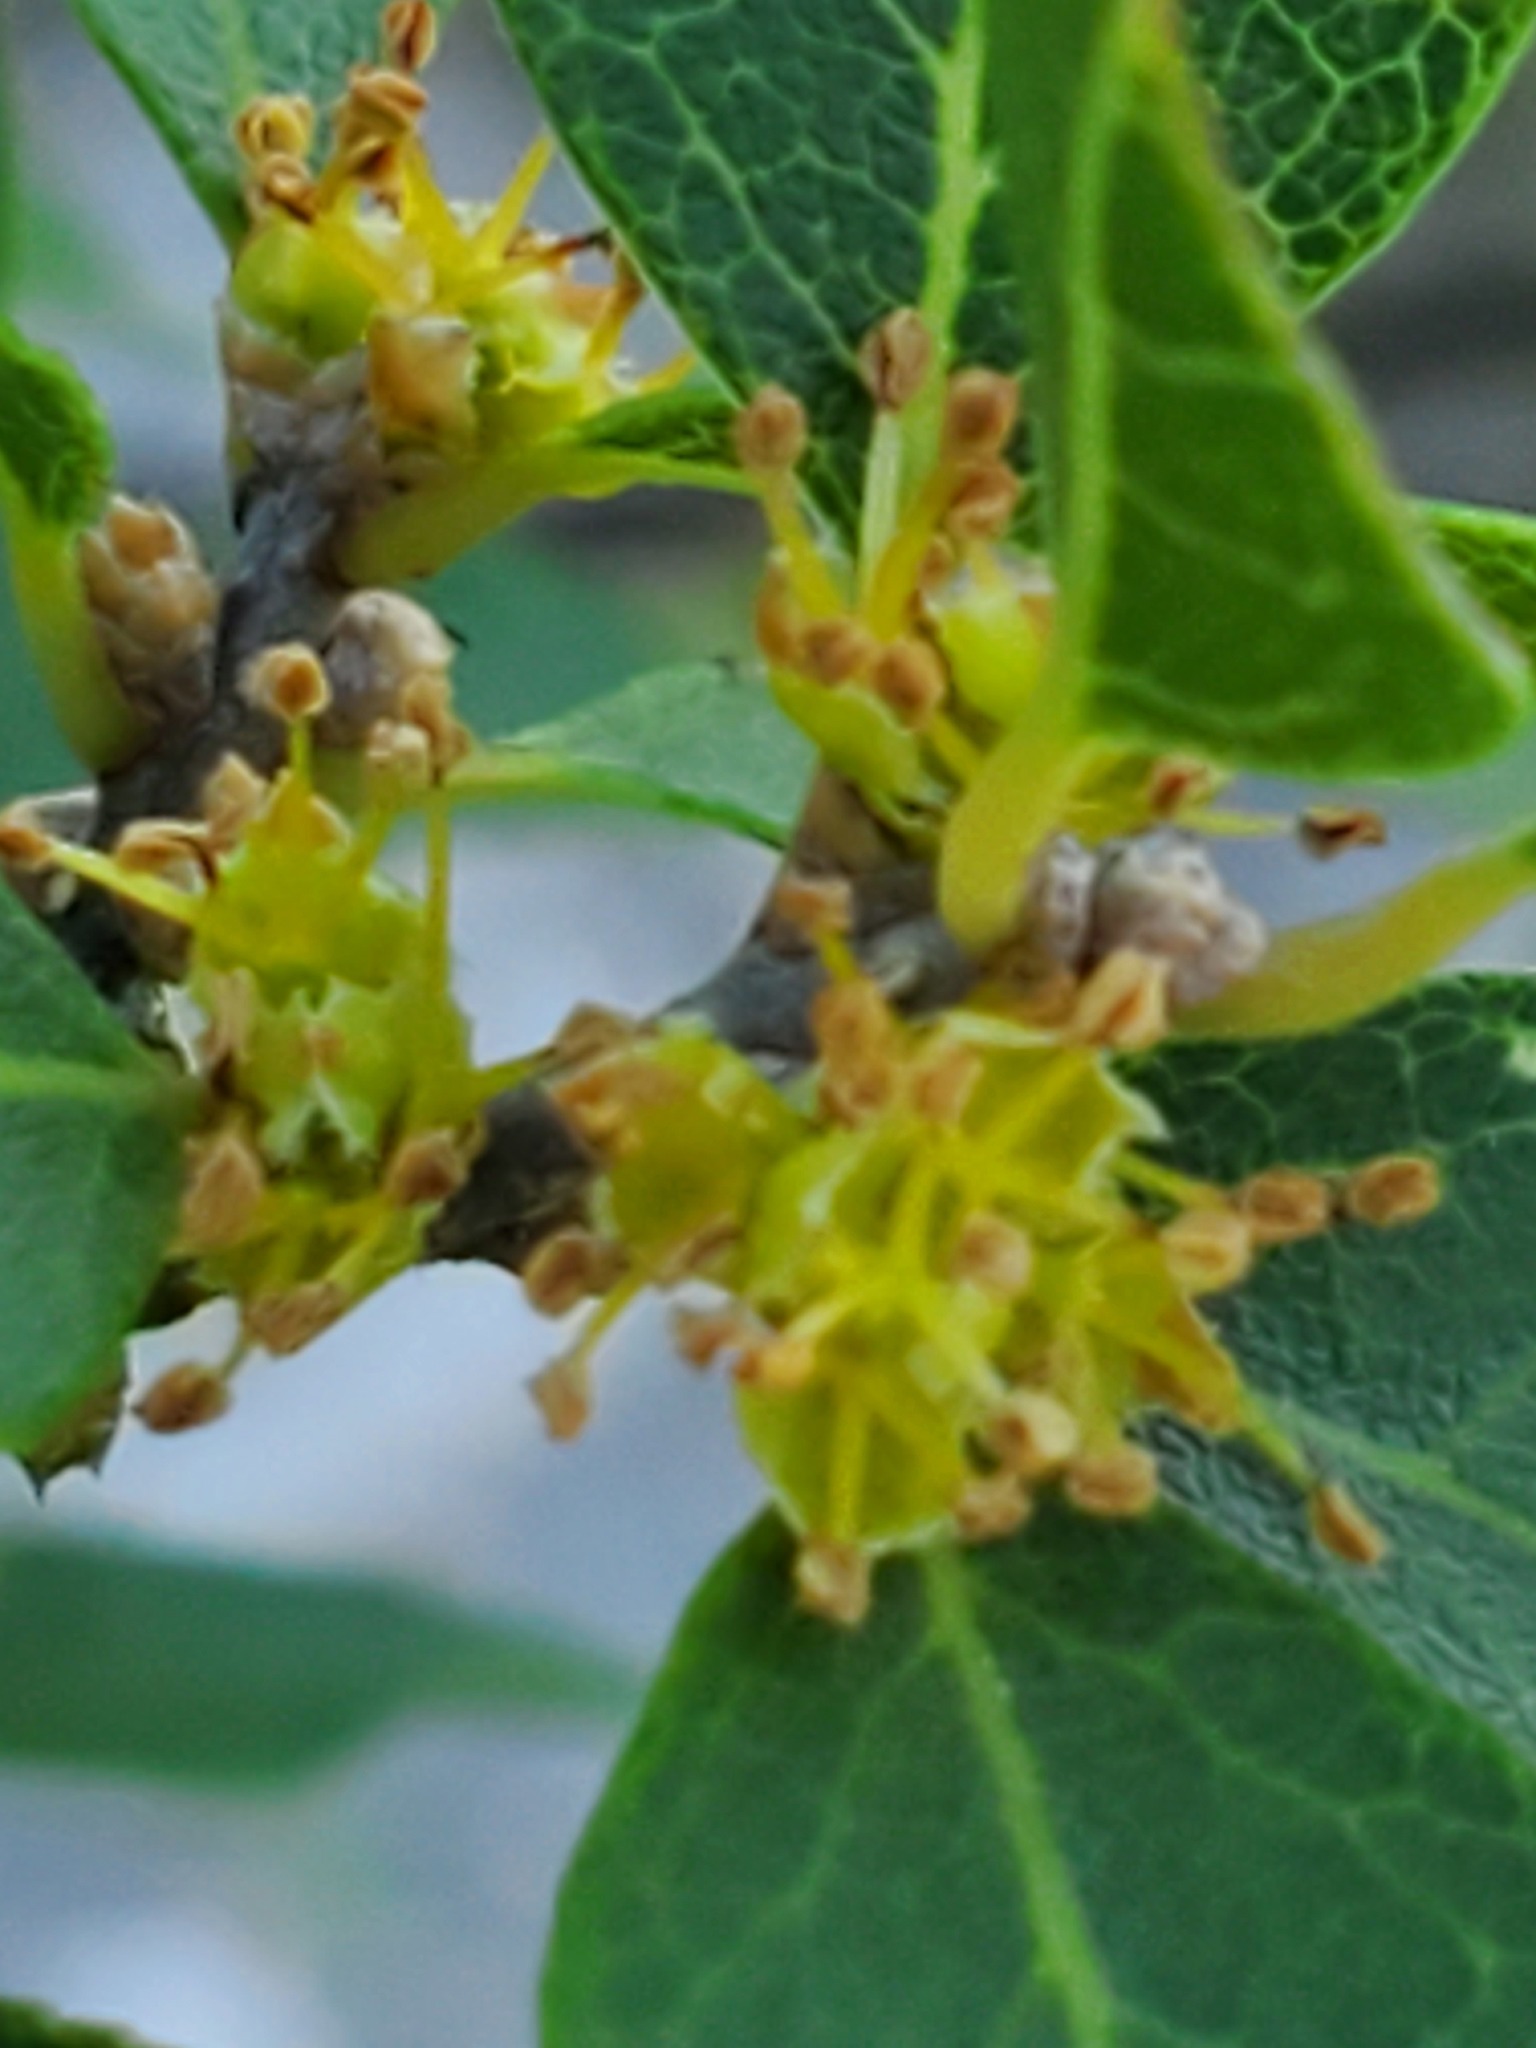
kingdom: Plantae
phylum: Tracheophyta
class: Magnoliopsida
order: Lamiales
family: Oleaceae
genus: Forestiera
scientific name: Forestiera reticulata
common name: Netleaf swamp-privet
